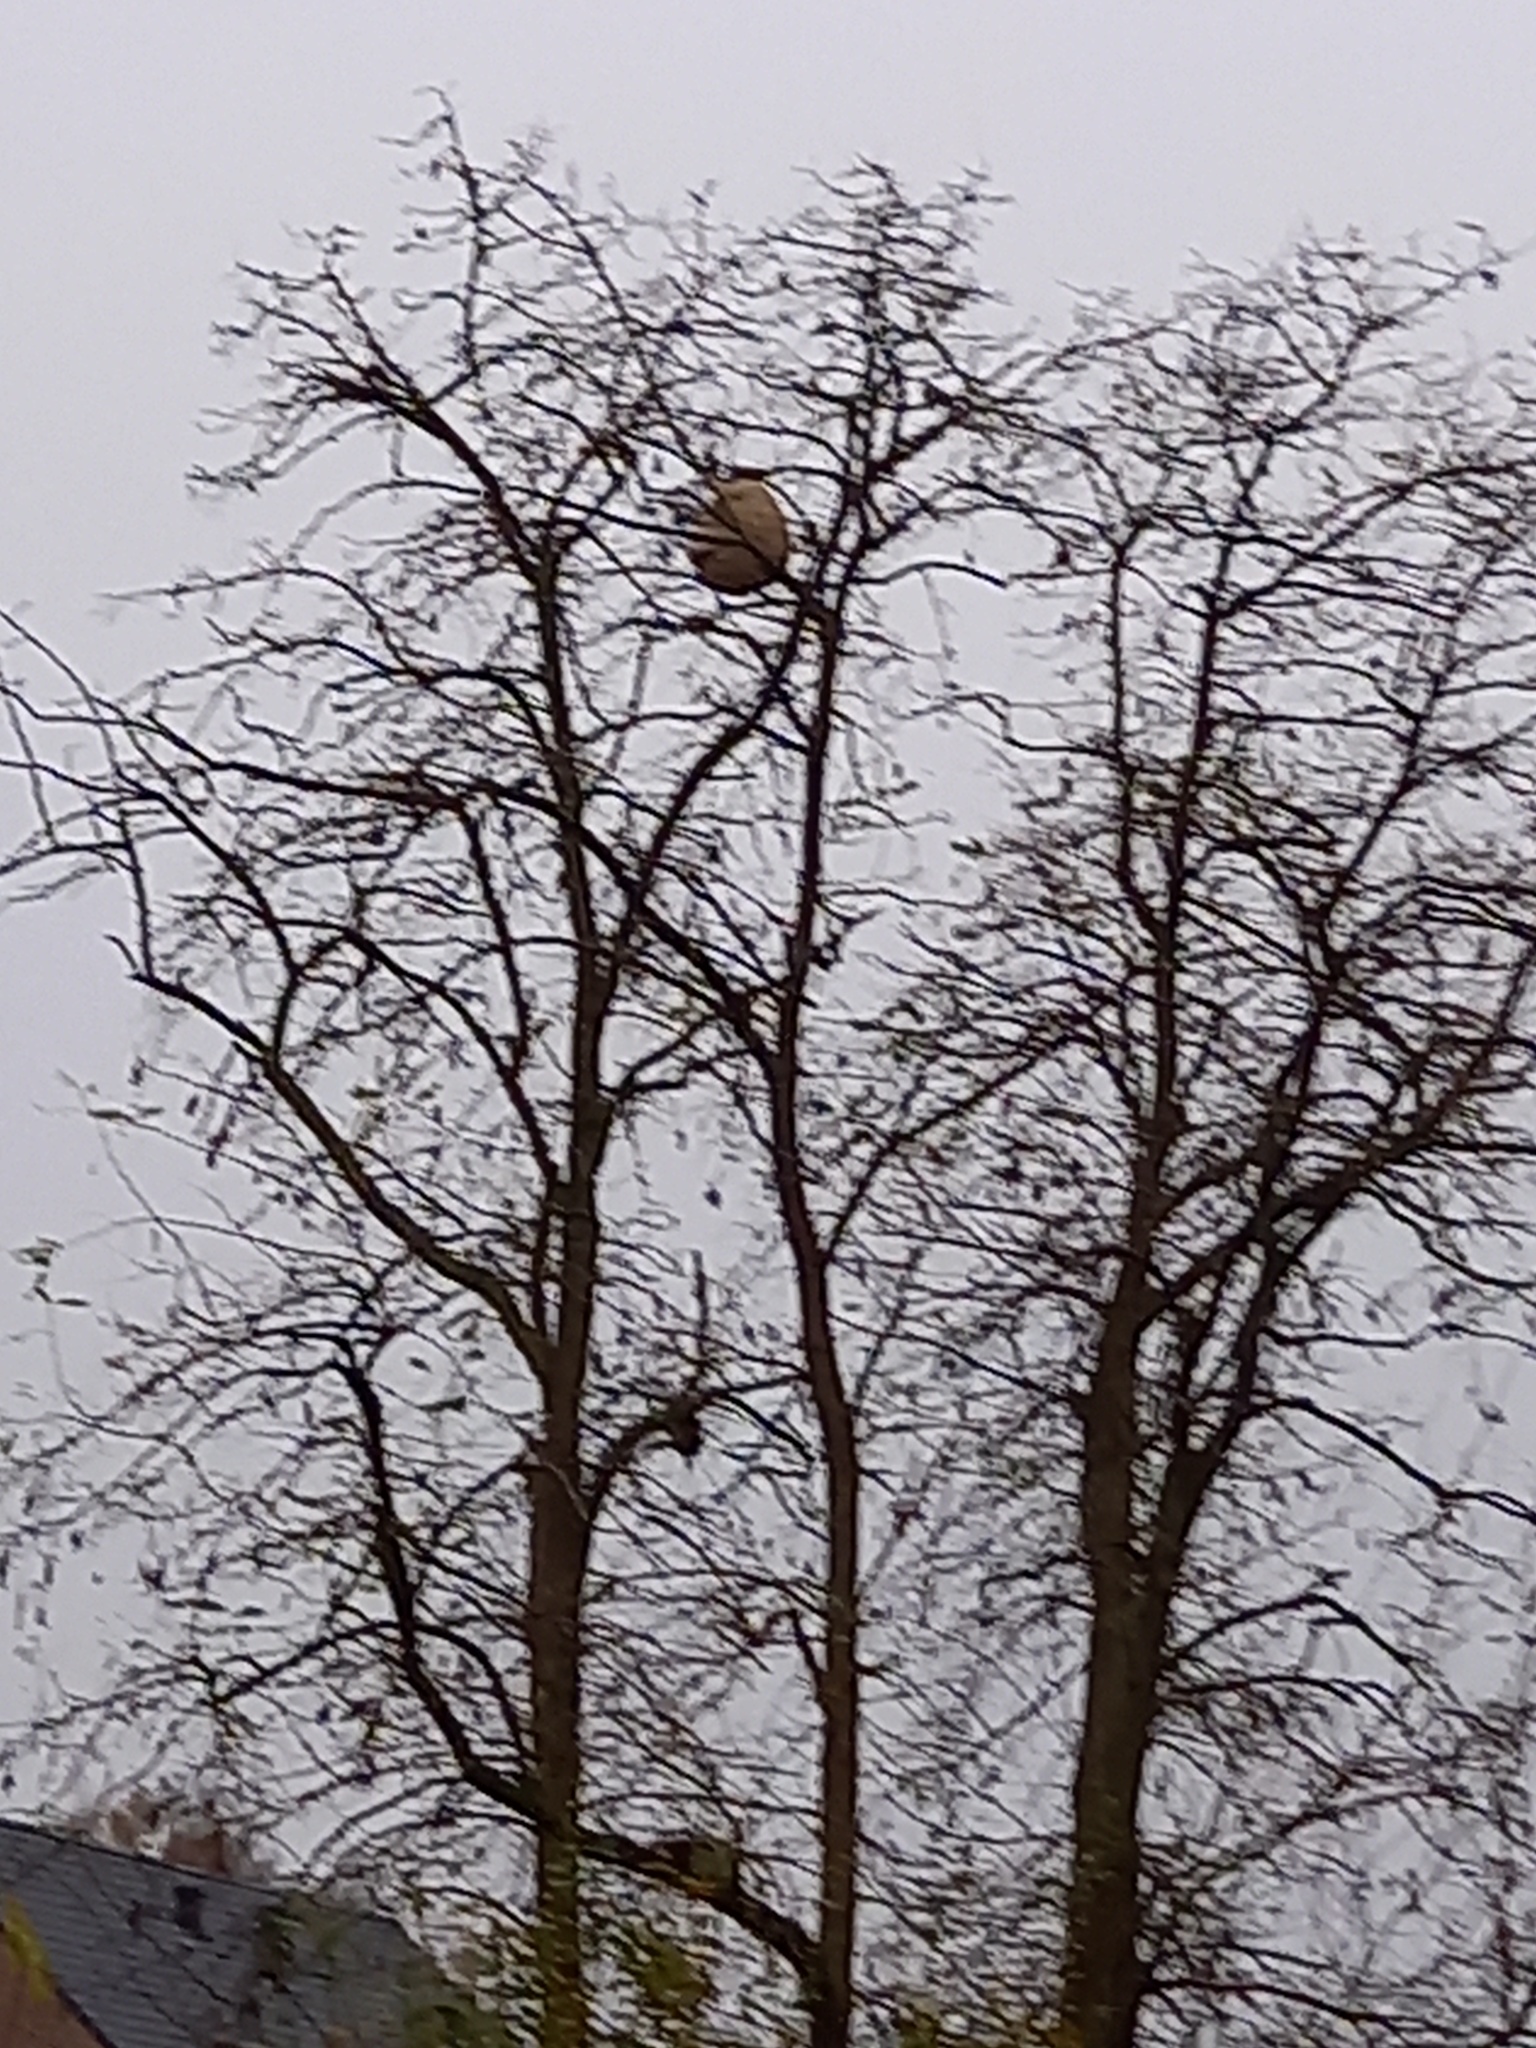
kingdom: Animalia
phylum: Arthropoda
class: Insecta
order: Hymenoptera
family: Vespidae
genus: Vespa
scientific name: Vespa velutina
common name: Asian hornet
